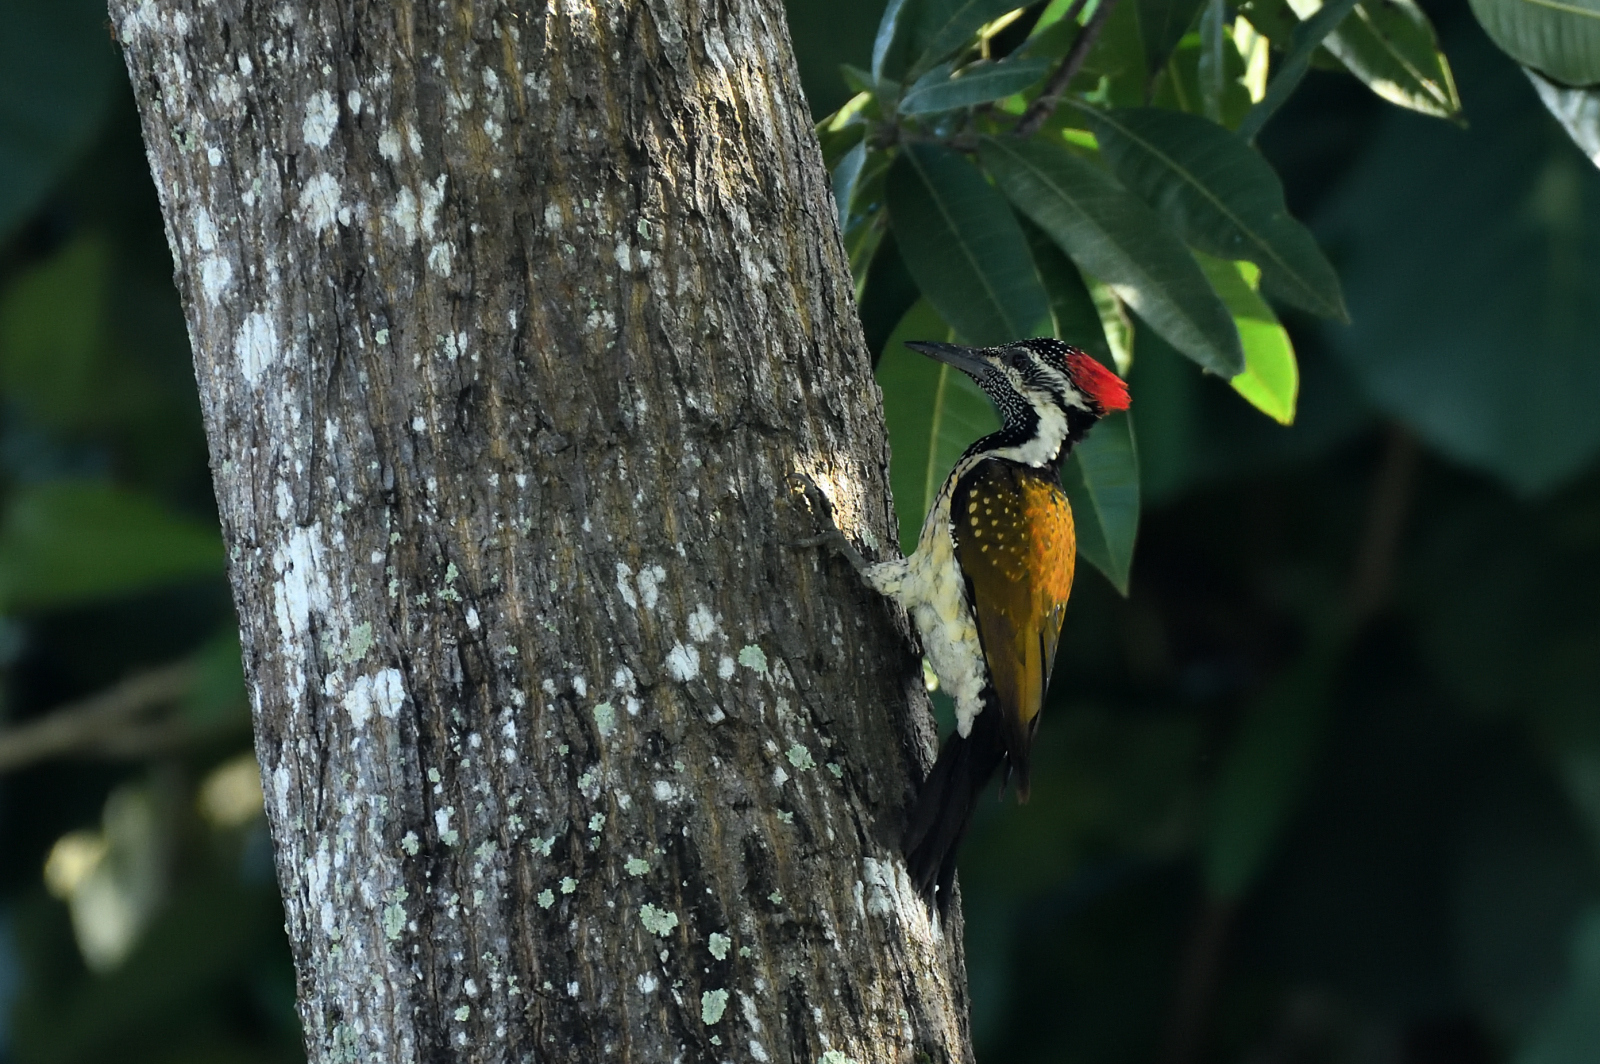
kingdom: Animalia
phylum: Chordata
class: Aves
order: Piciformes
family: Picidae
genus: Dinopium
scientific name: Dinopium benghalense
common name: Black-rumped flameback
